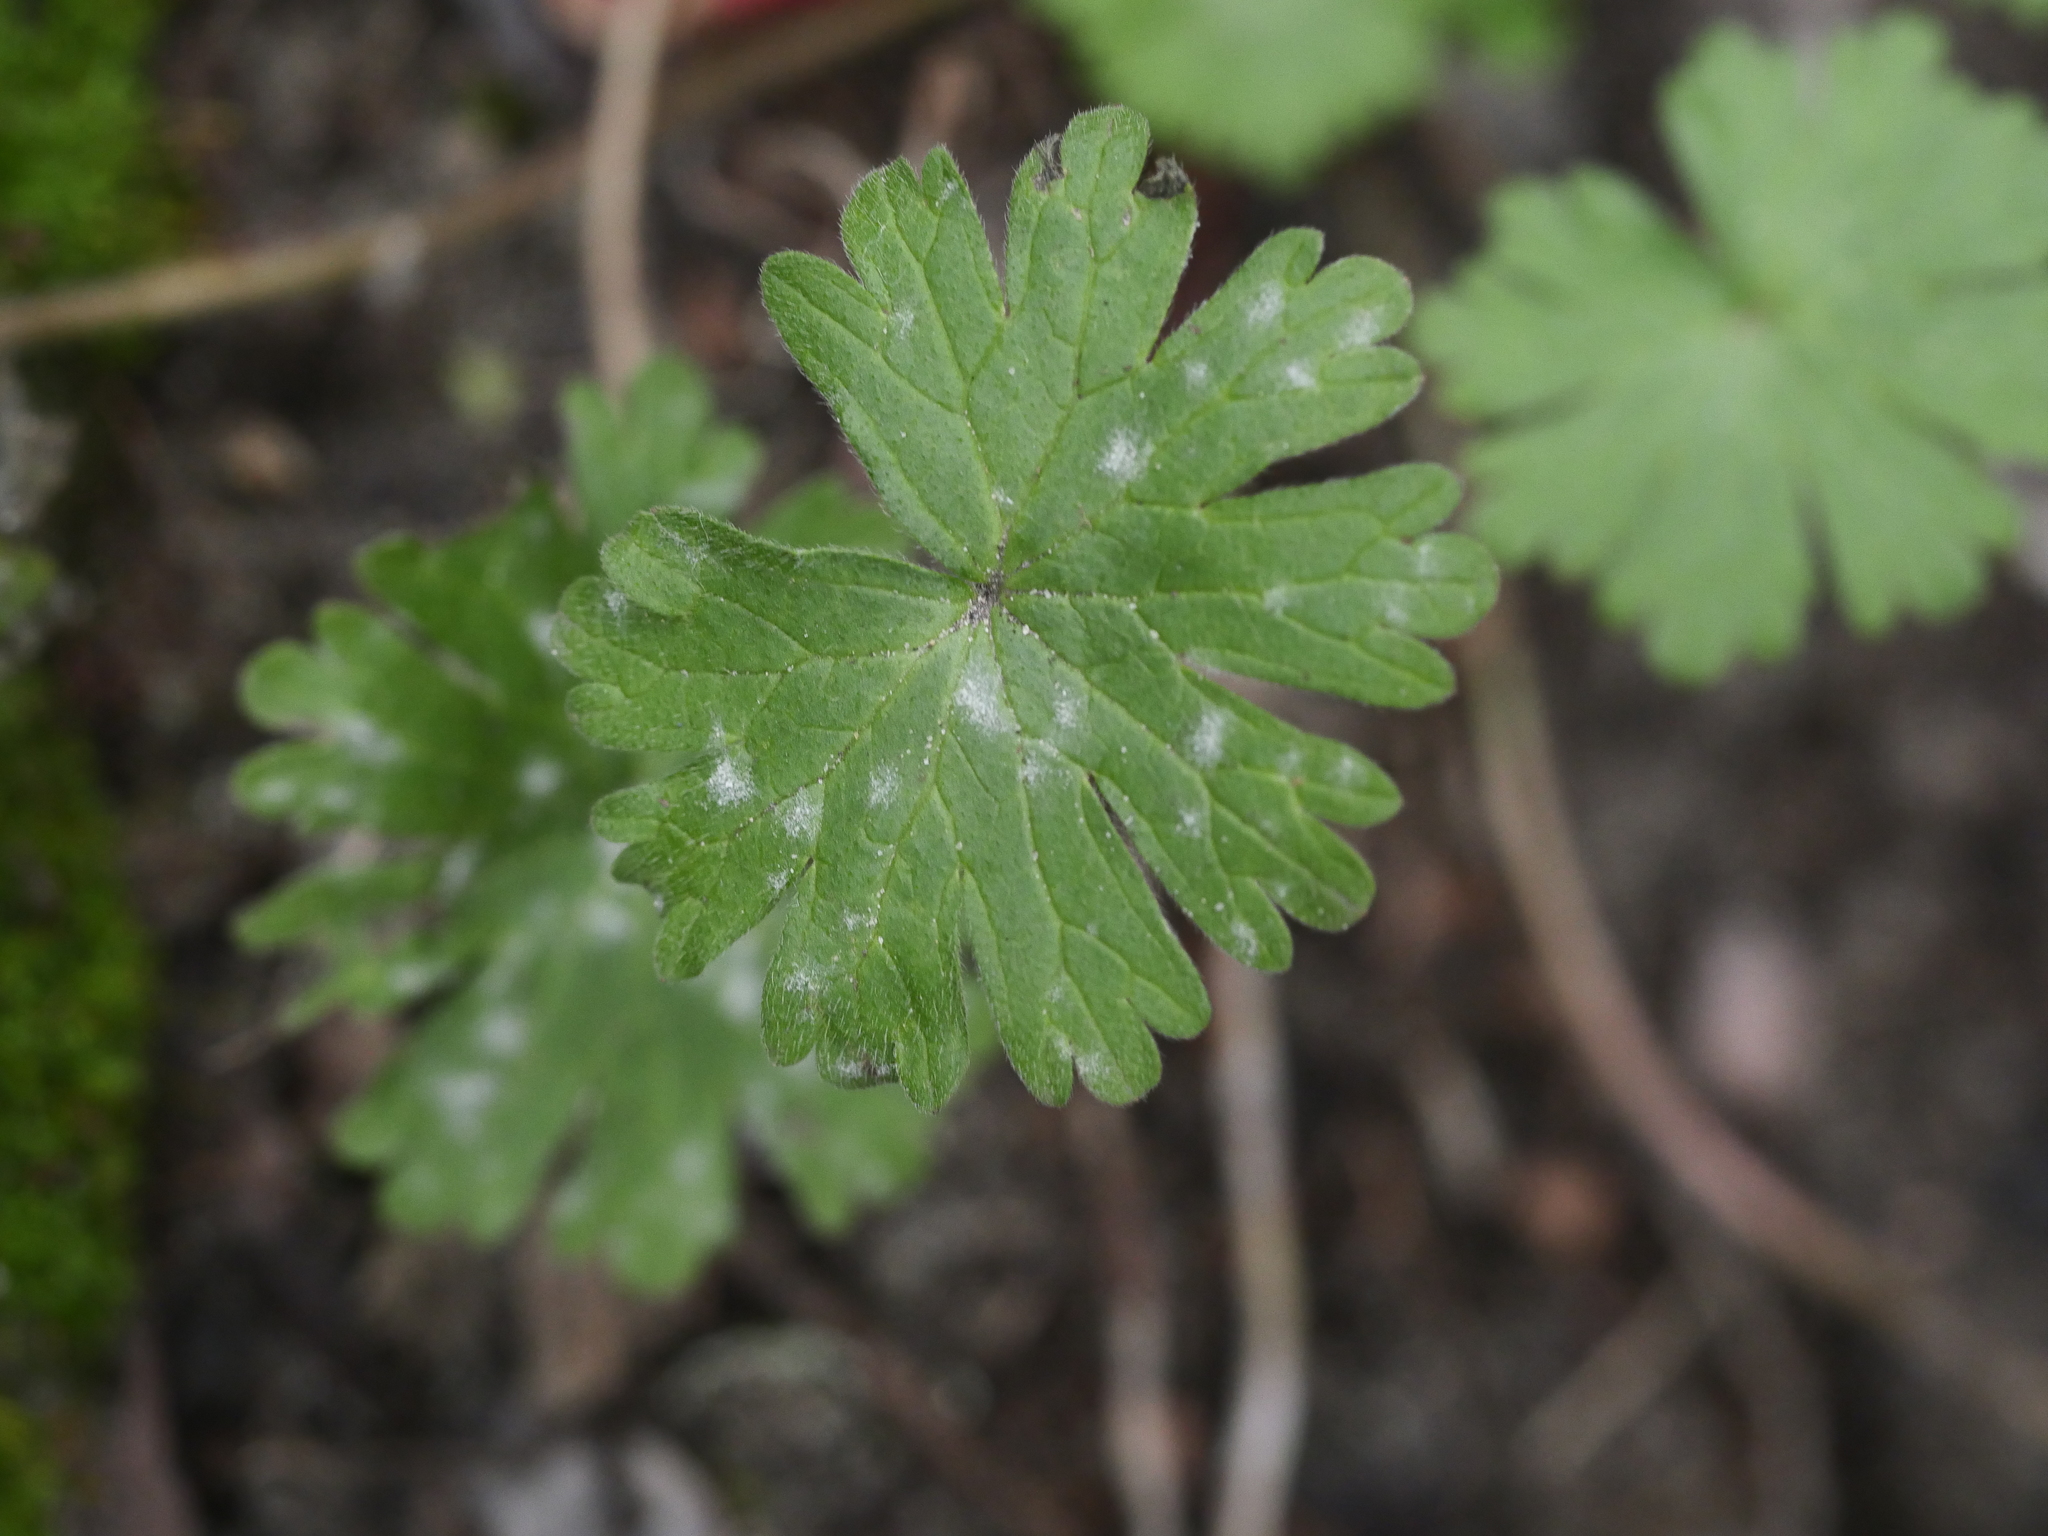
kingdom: Plantae
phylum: Tracheophyta
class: Magnoliopsida
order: Geraniales
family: Geraniaceae
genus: Geranium
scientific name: Geranium molle
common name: Dove's-foot crane's-bill
